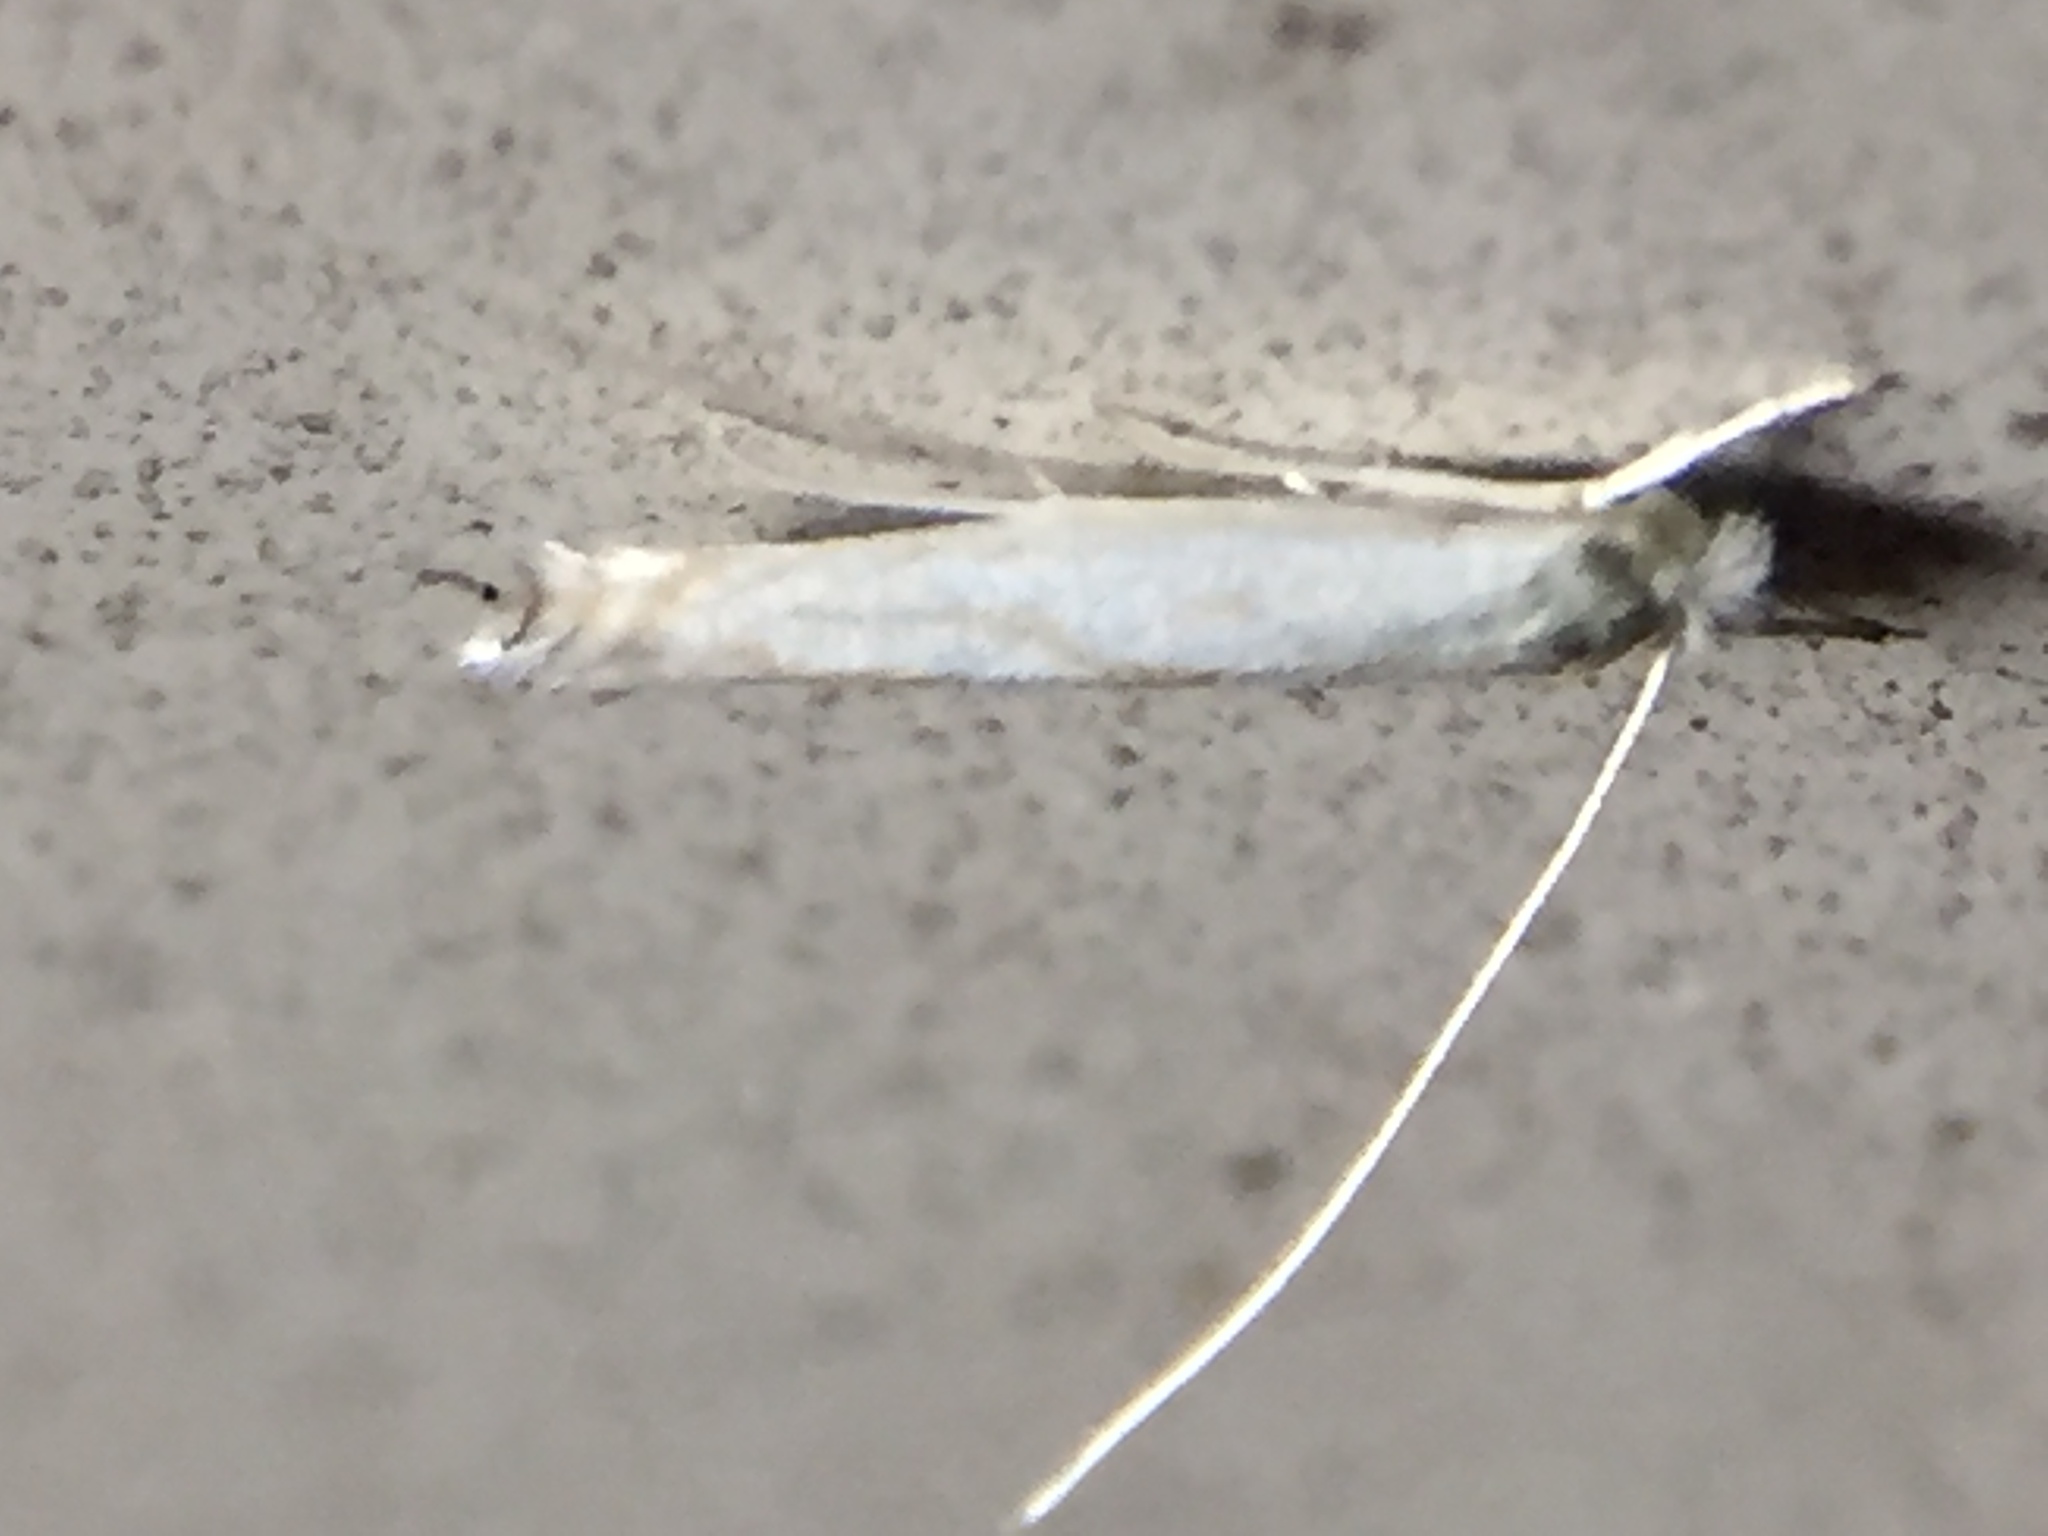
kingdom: Animalia
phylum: Arthropoda
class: Insecta
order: Lepidoptera
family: Lyonetiidae
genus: Stegommata
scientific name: Stegommata sulfuratella
